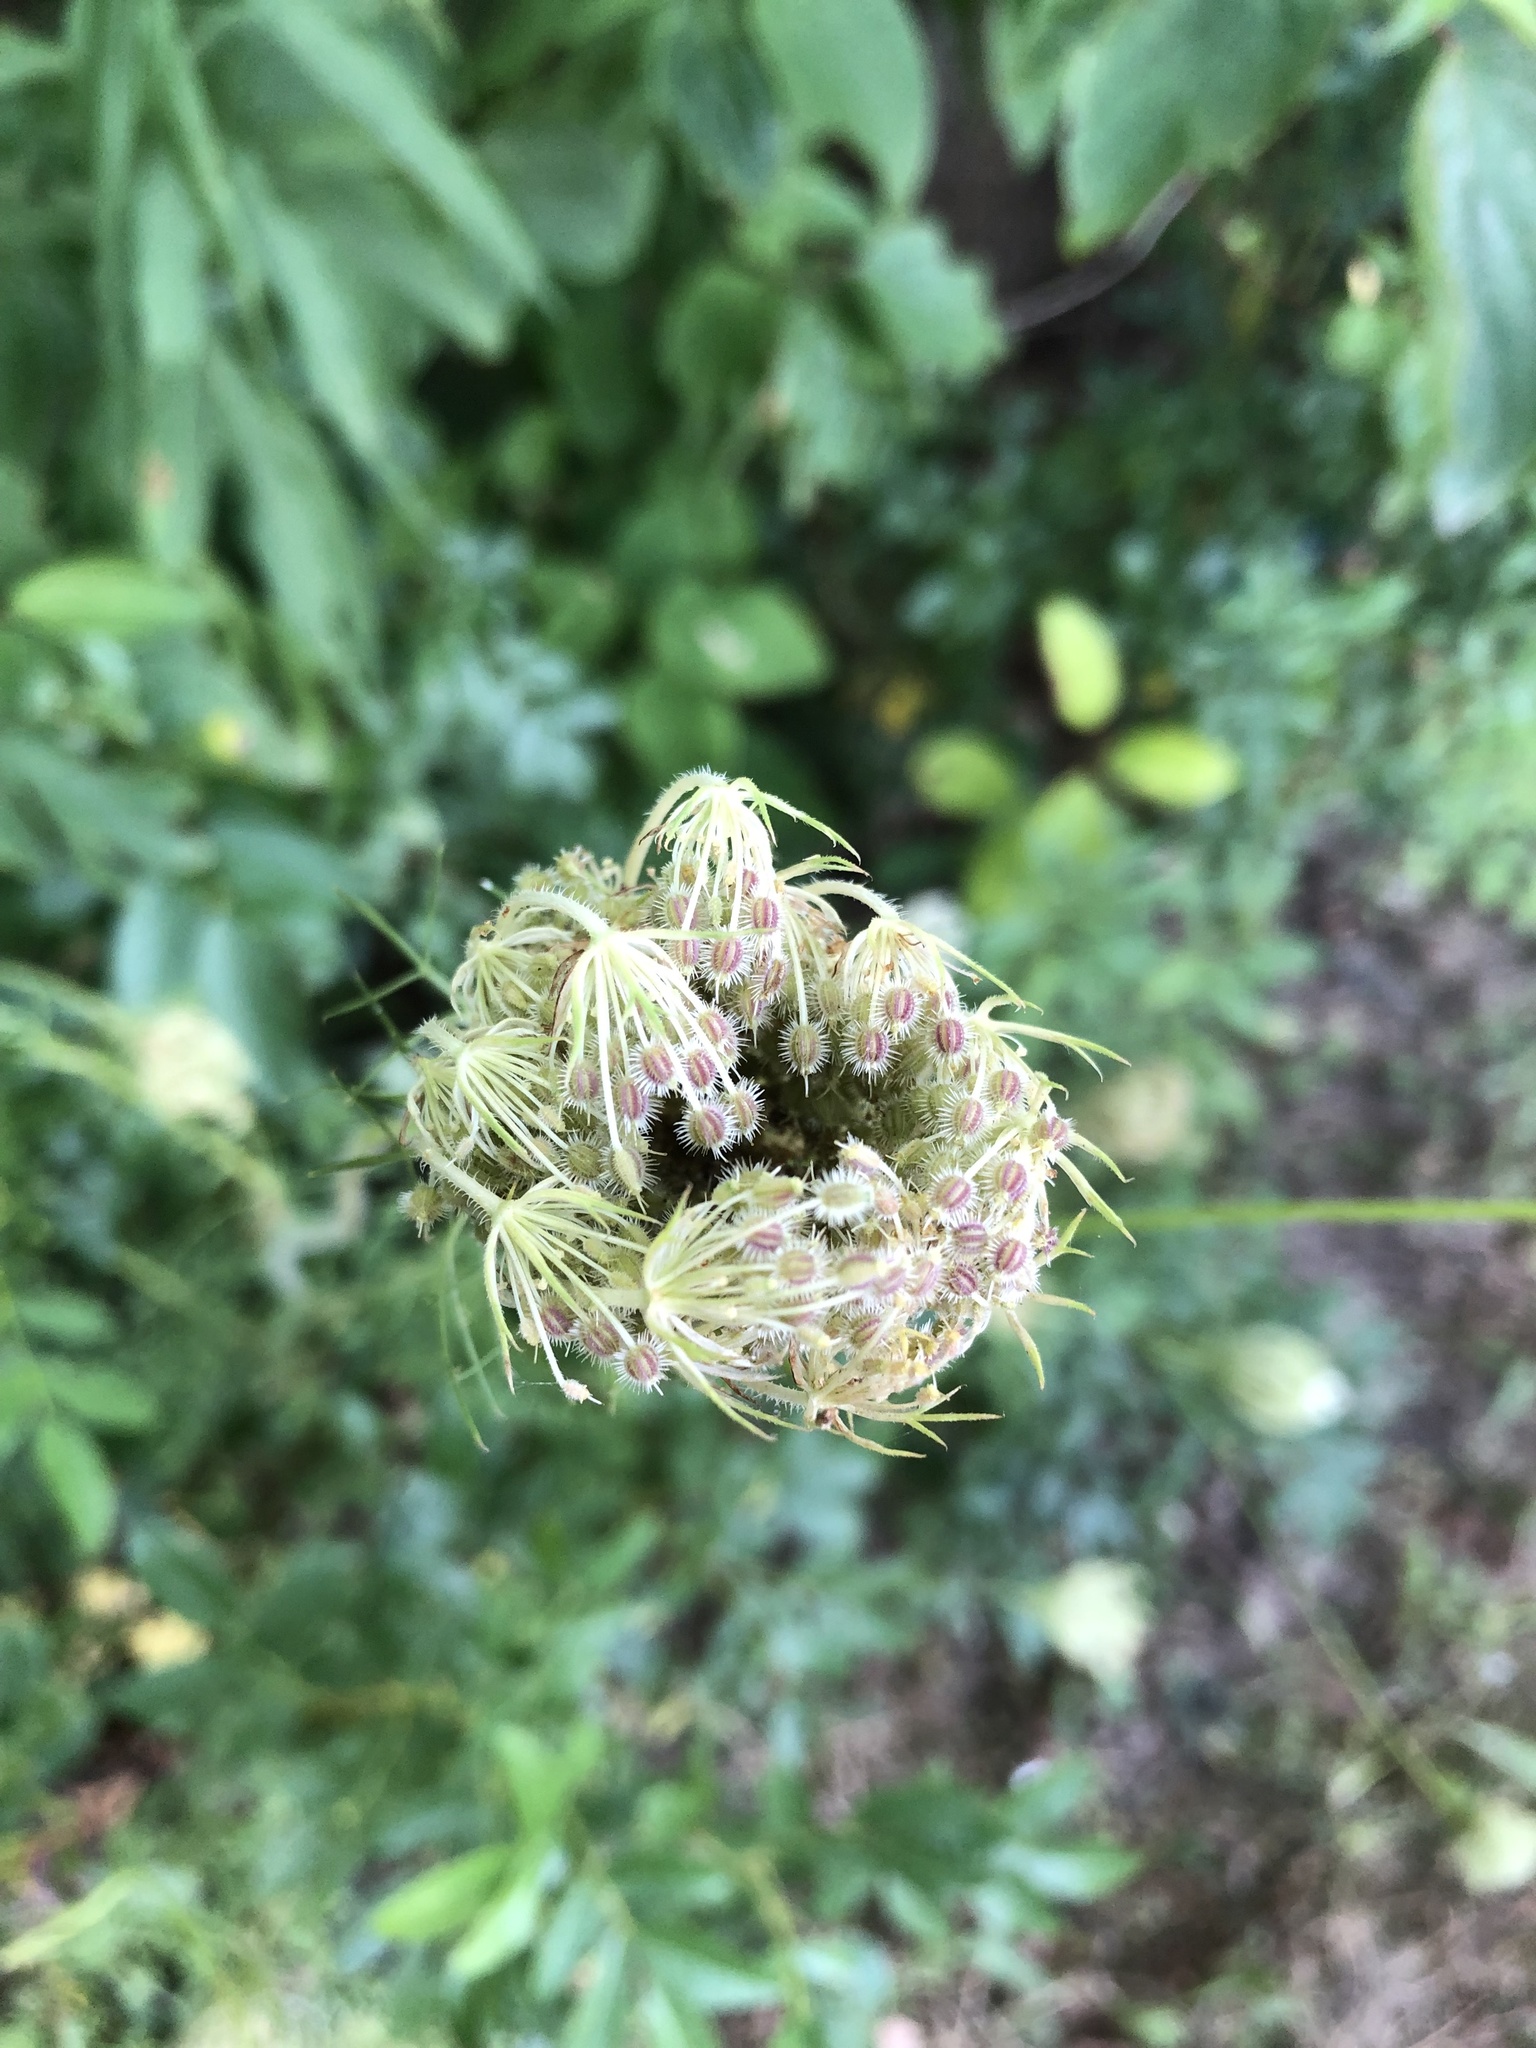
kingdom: Plantae
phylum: Tracheophyta
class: Magnoliopsida
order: Apiales
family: Apiaceae
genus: Daucus
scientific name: Daucus carota
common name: Wild carrot
